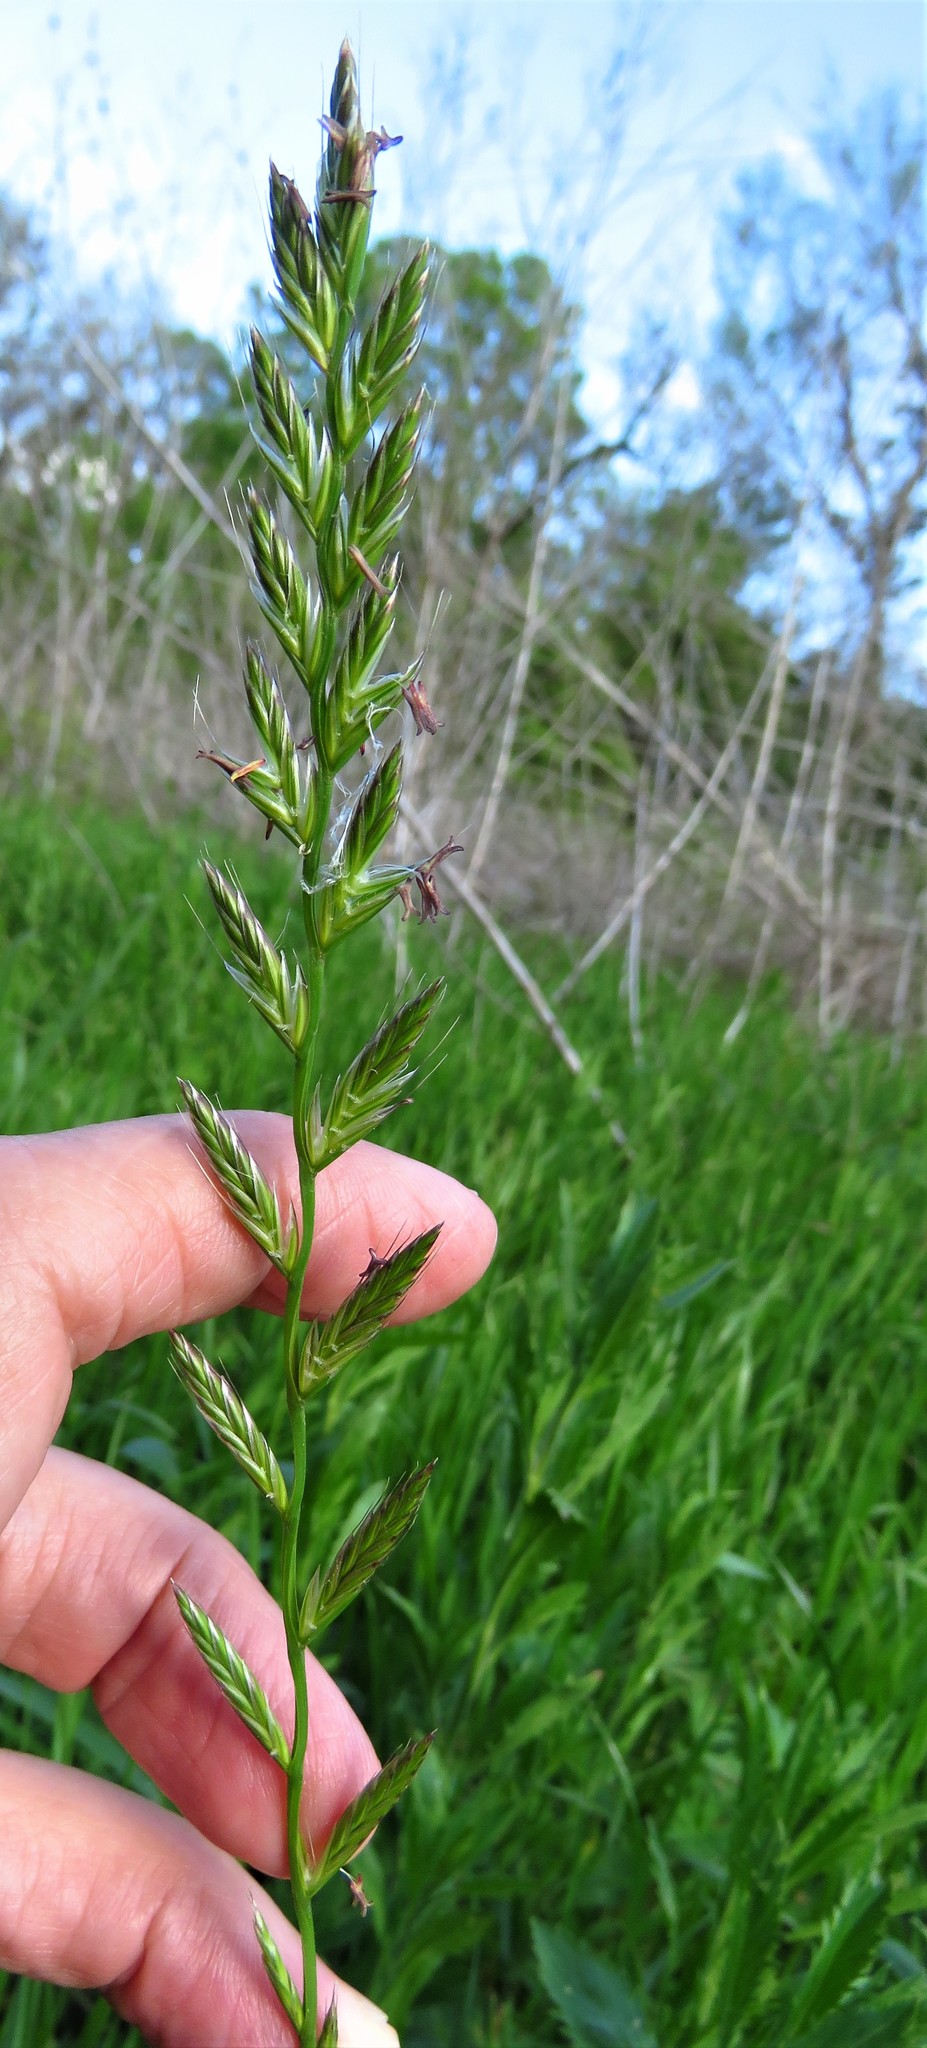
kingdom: Plantae
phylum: Tracheophyta
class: Liliopsida
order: Poales
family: Poaceae
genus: Lolium
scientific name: Lolium perenne
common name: Perennial ryegrass
